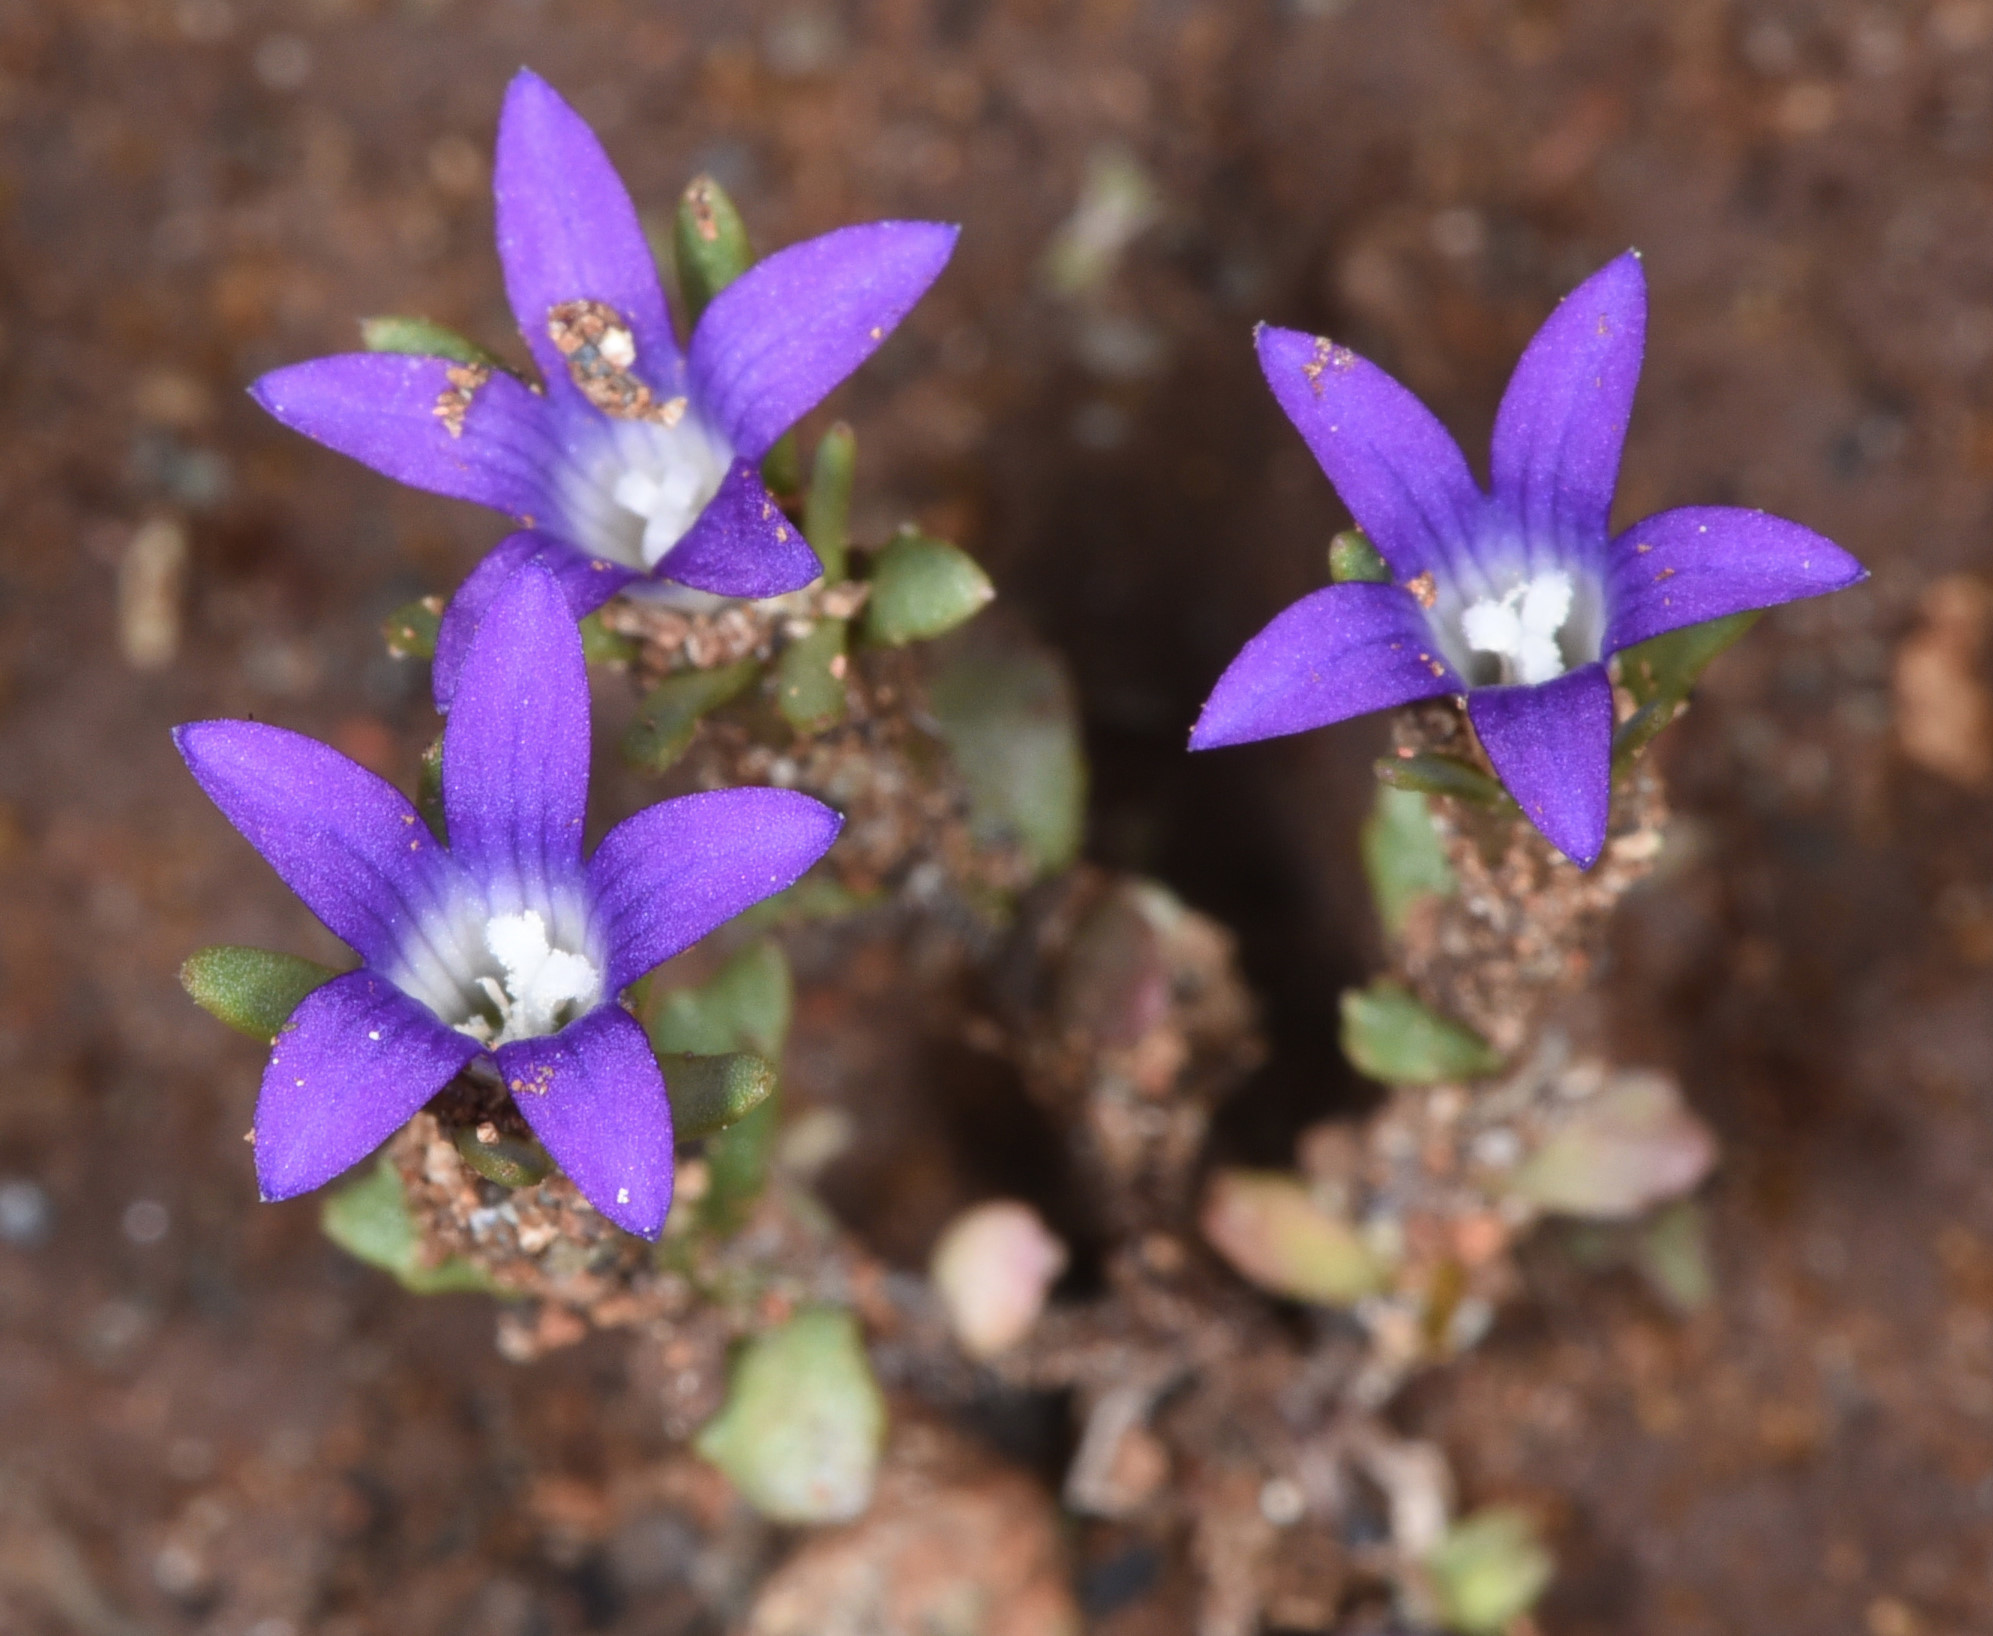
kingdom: Plantae
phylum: Tracheophyta
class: Magnoliopsida
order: Asterales
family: Campanulaceae
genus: Githopsis
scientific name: Githopsis specularioides
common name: Common bluecup
